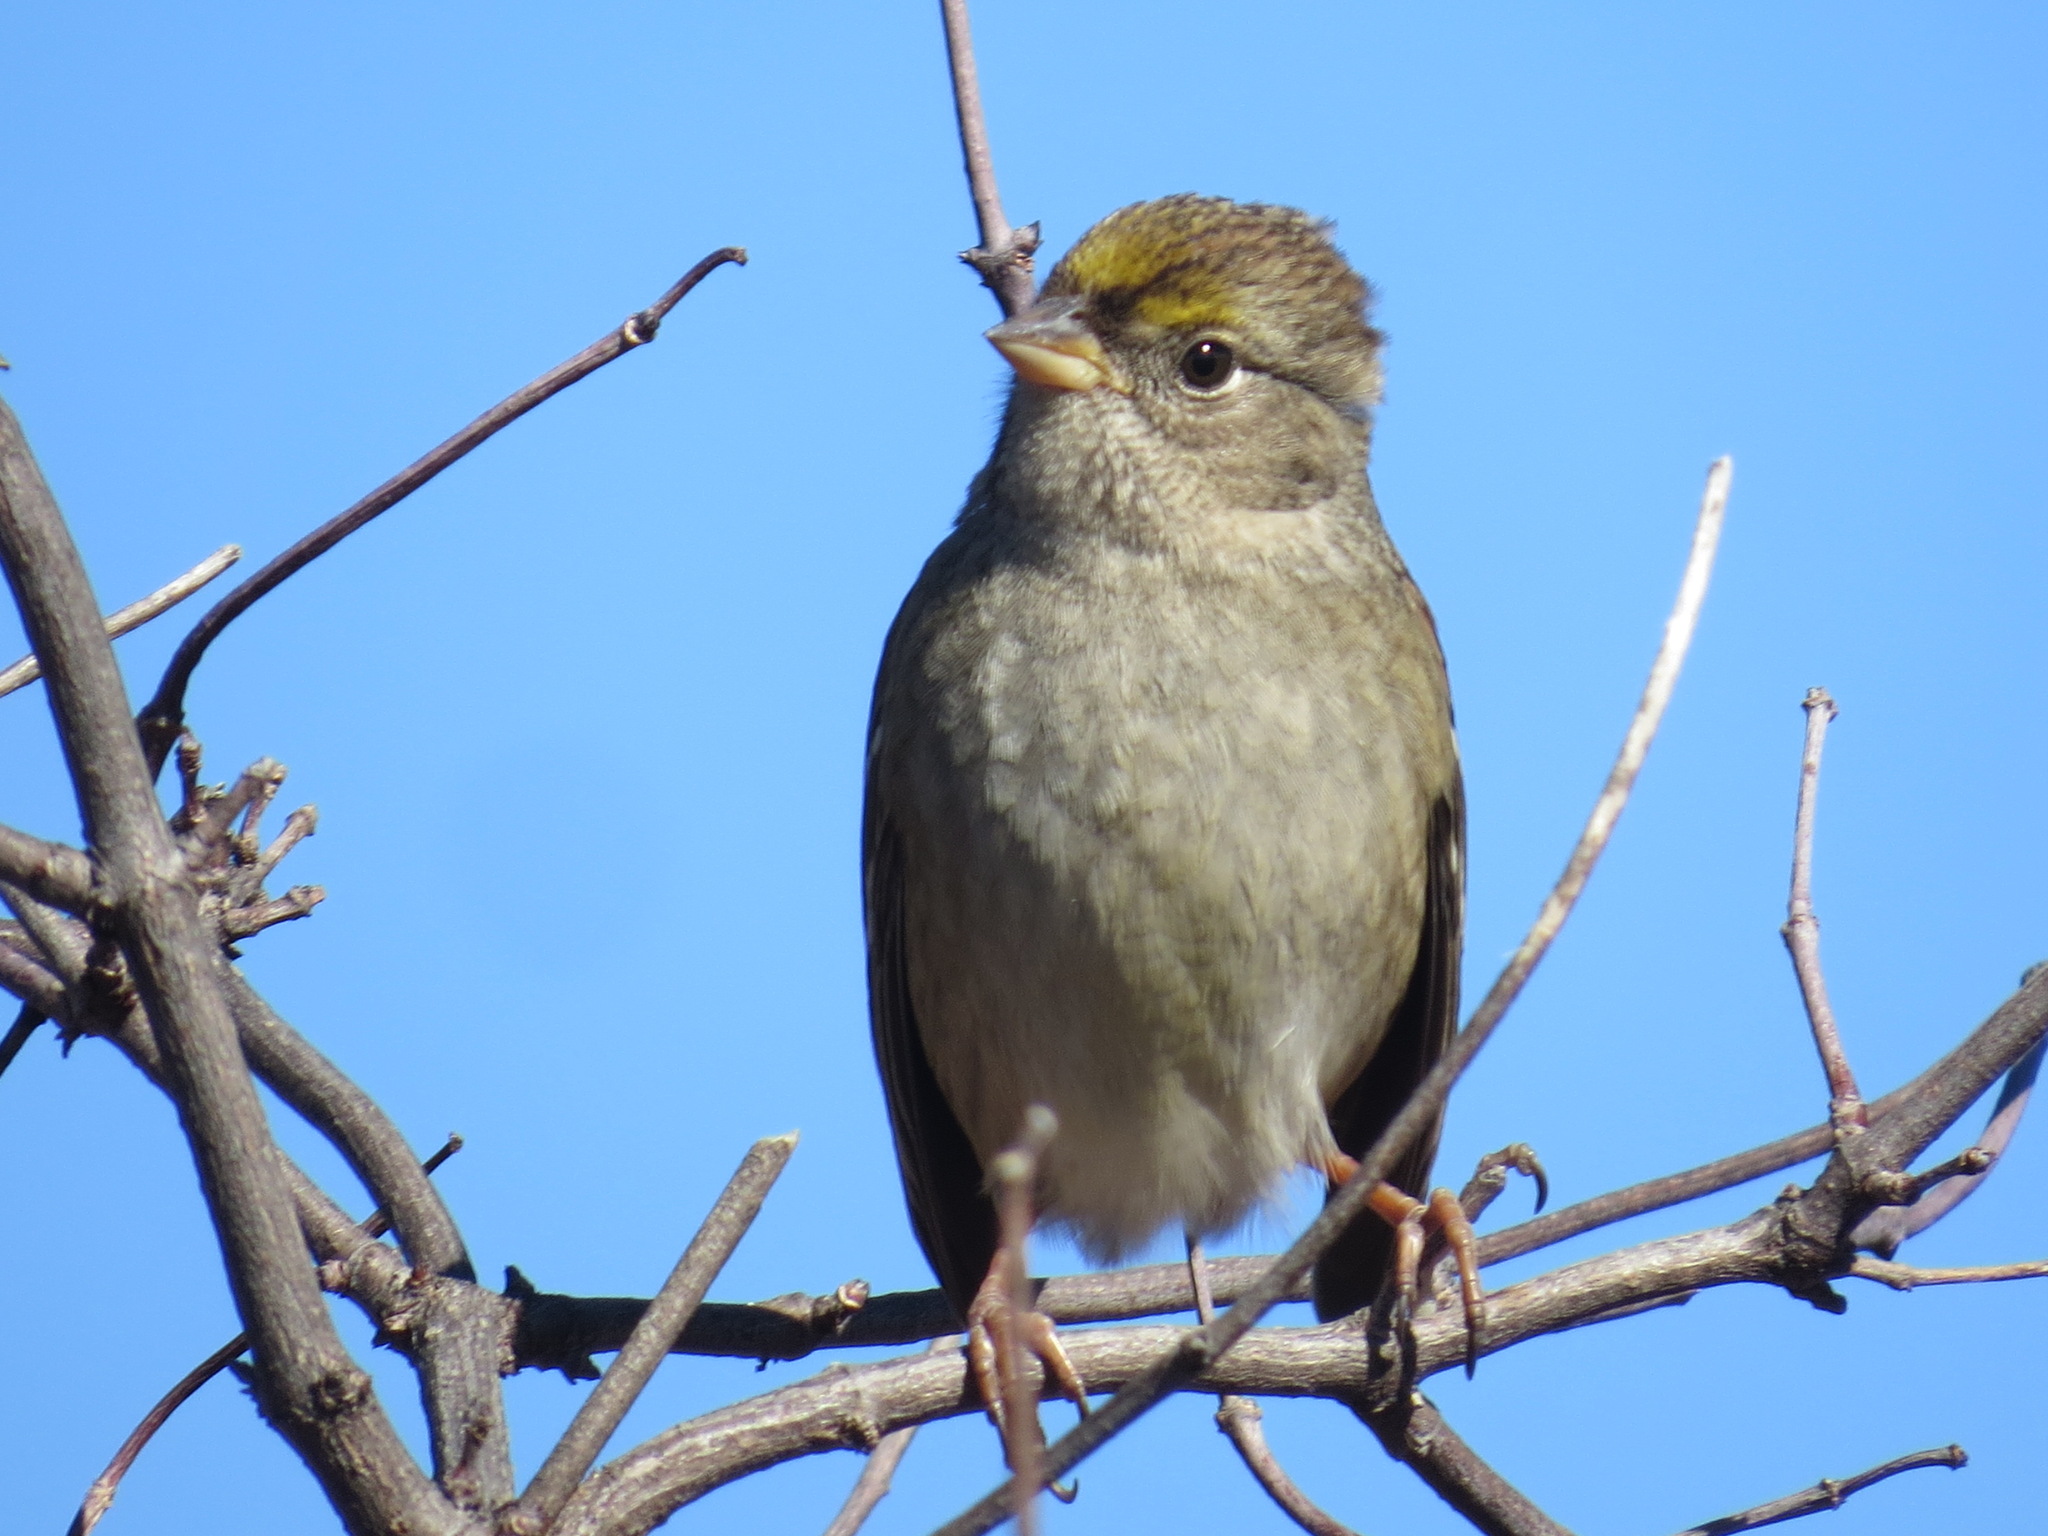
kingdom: Animalia
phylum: Chordata
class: Aves
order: Passeriformes
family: Passerellidae
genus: Zonotrichia
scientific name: Zonotrichia atricapilla
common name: Golden-crowned sparrow
